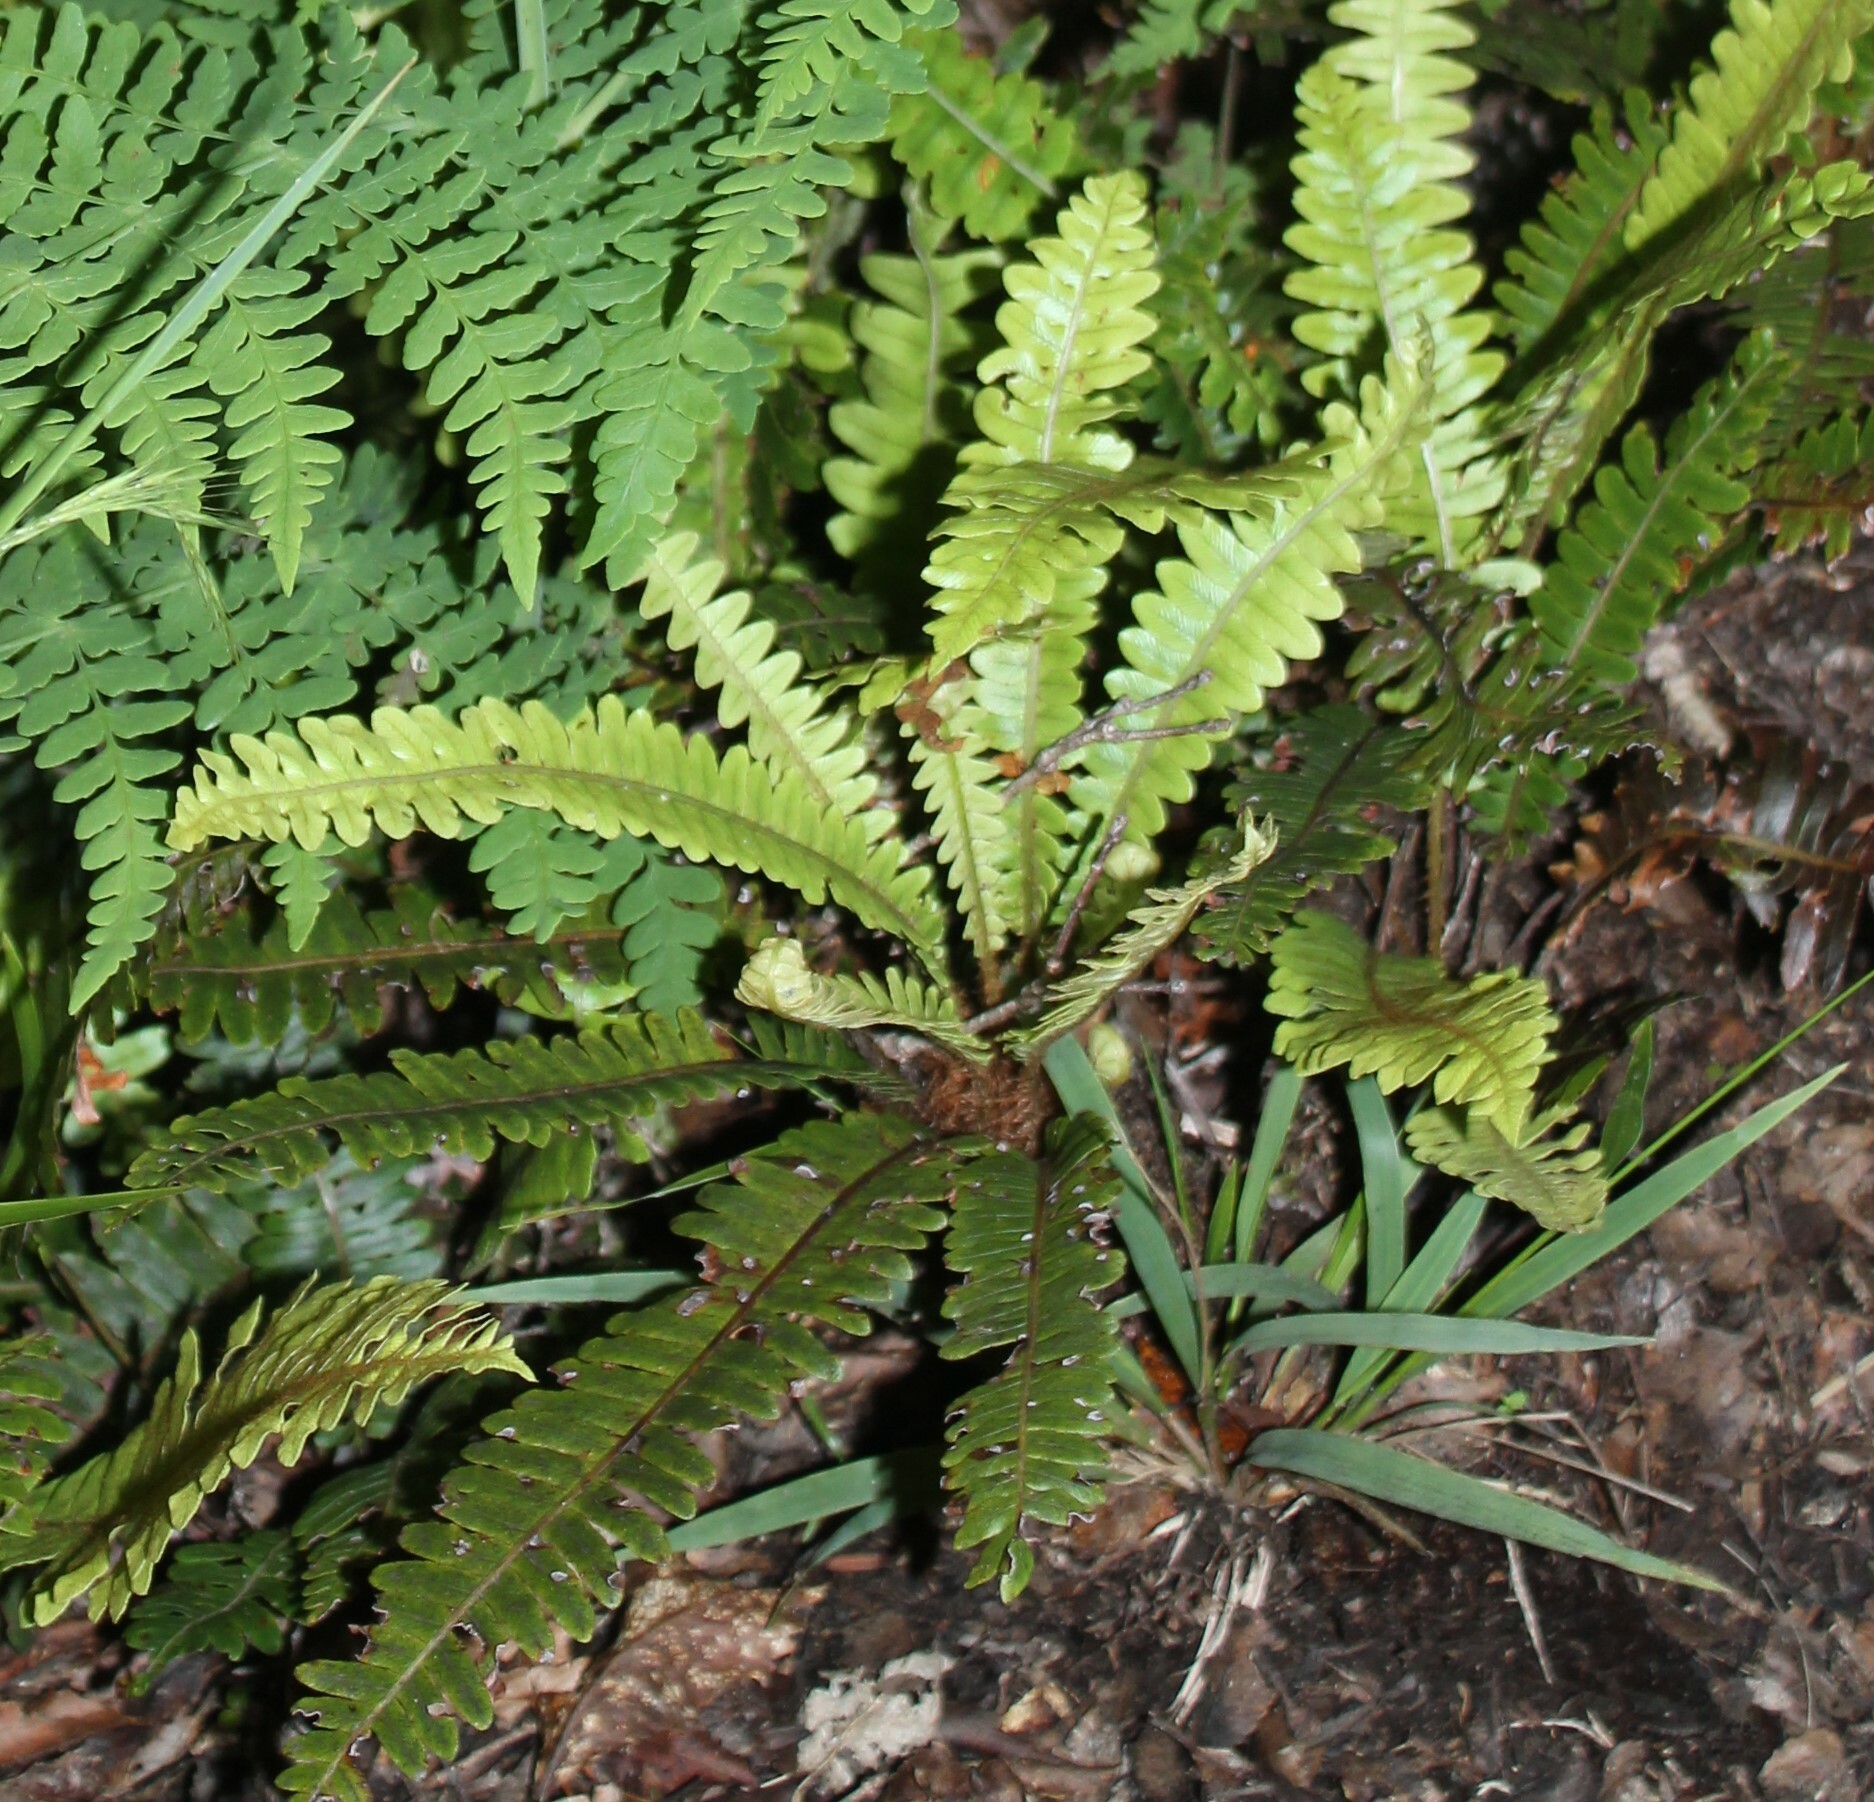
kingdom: Plantae
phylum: Tracheophyta
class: Polypodiopsida
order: Polypodiales
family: Blechnaceae
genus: Lomaria
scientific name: Lomaria discolor
